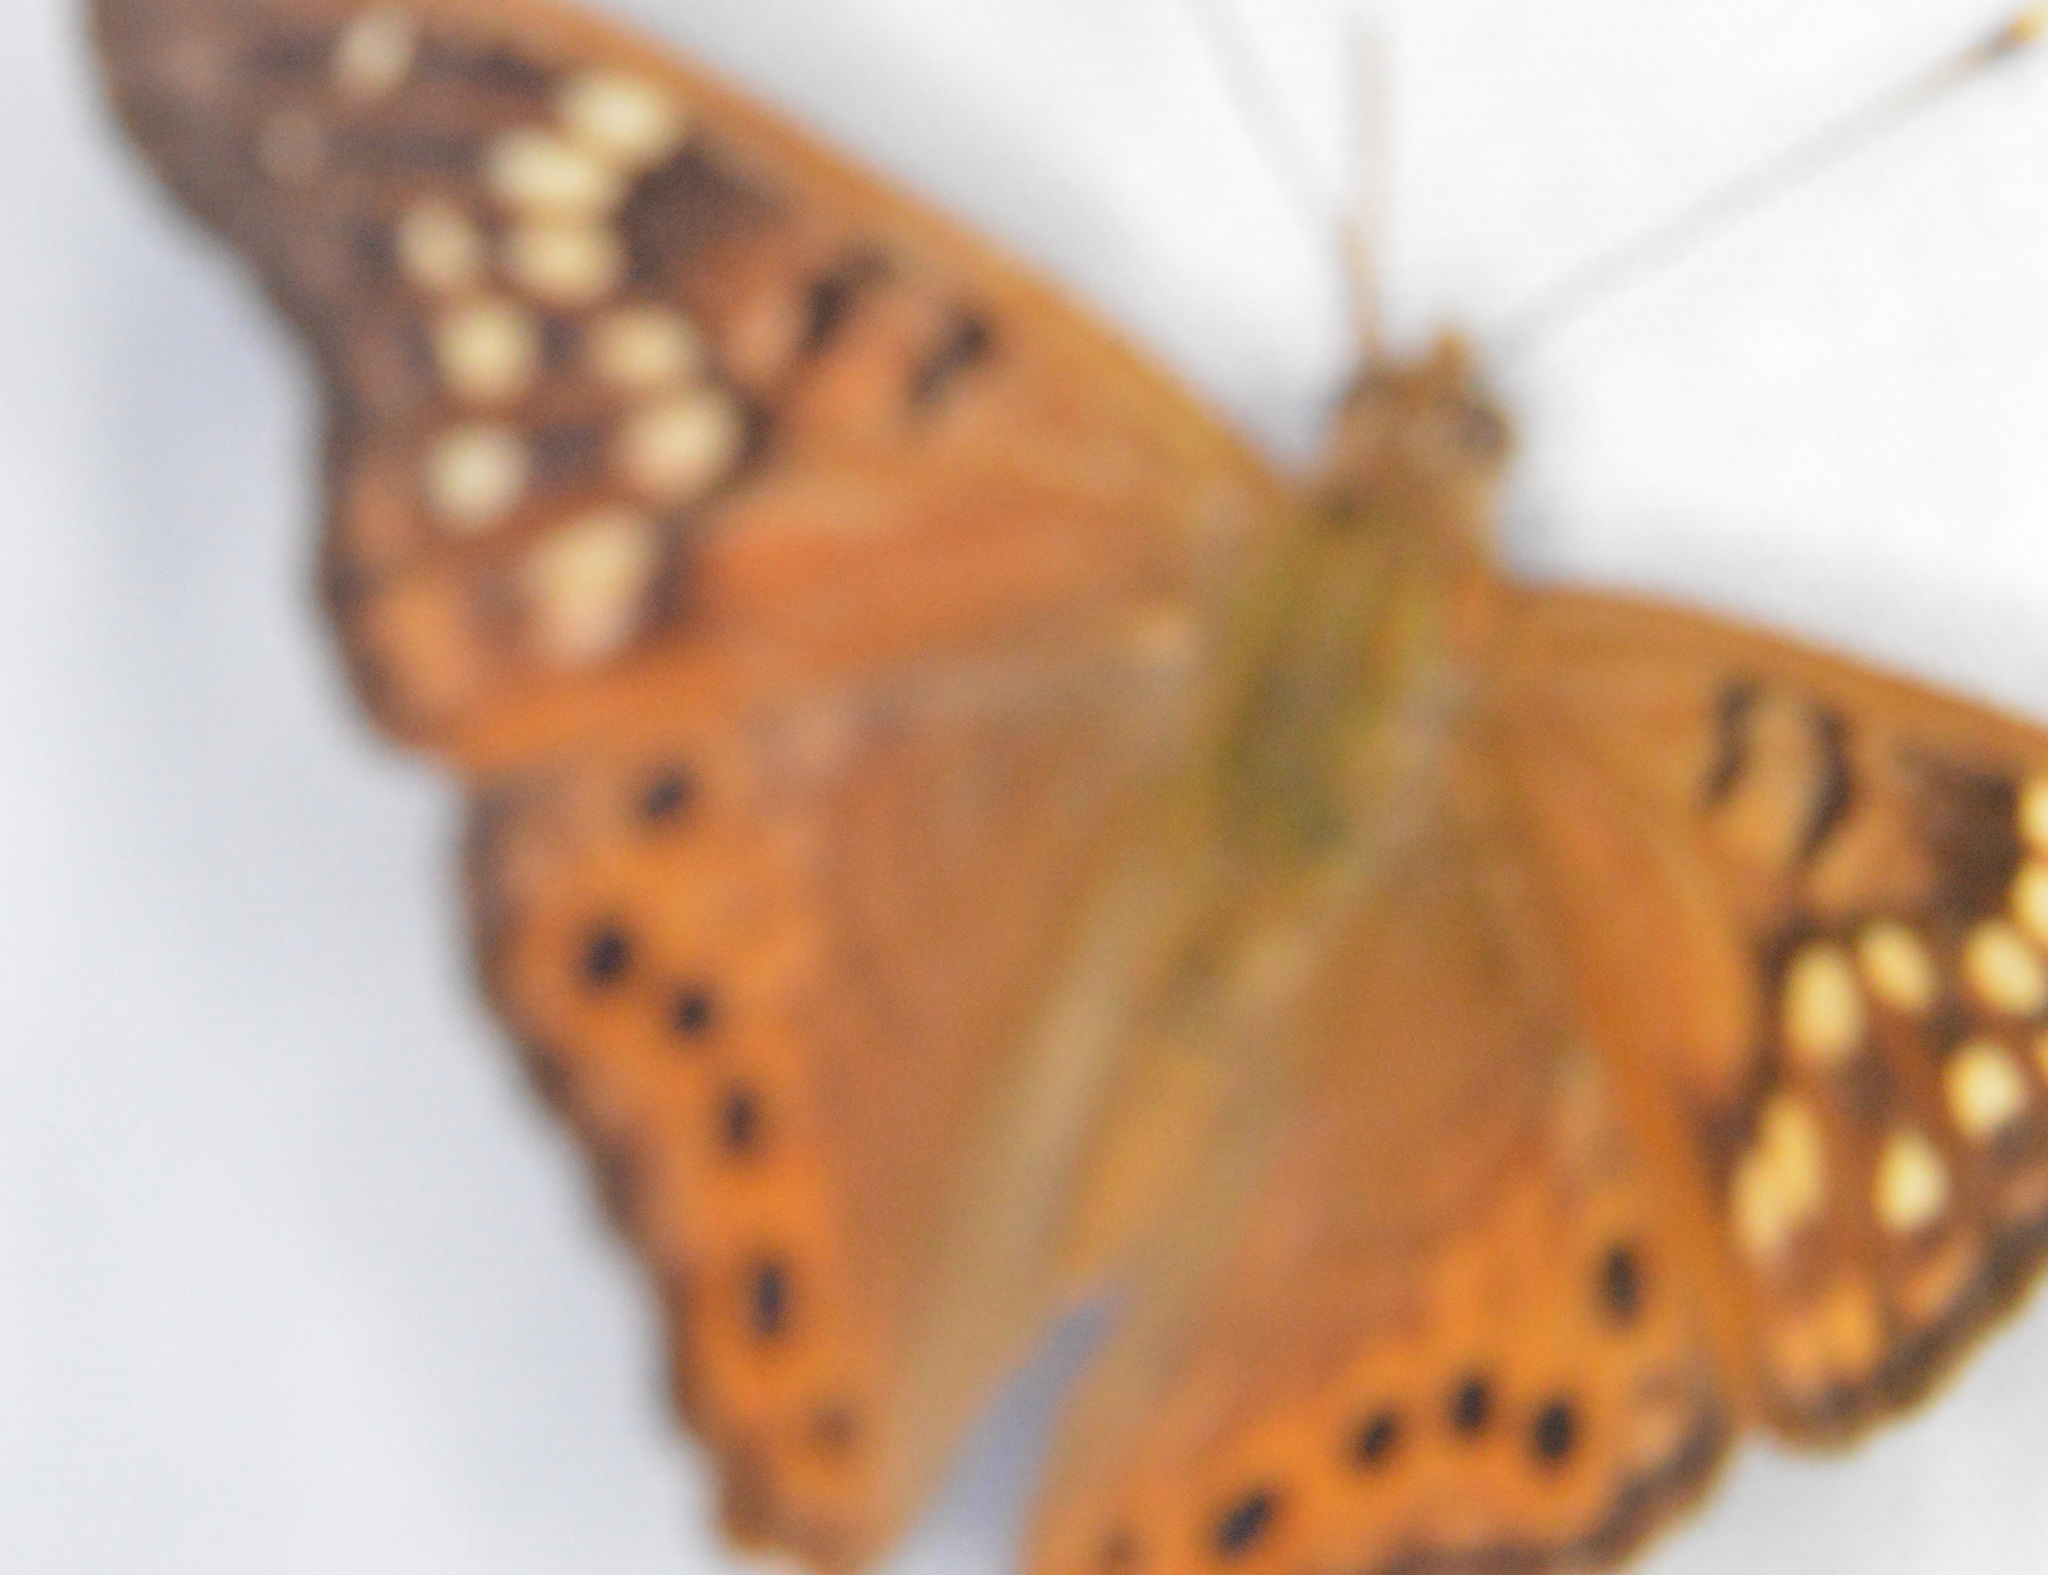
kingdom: Animalia
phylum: Arthropoda
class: Insecta
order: Lepidoptera
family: Nymphalidae
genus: Asterocampa
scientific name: Asterocampa clyton
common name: Tawny emperor
